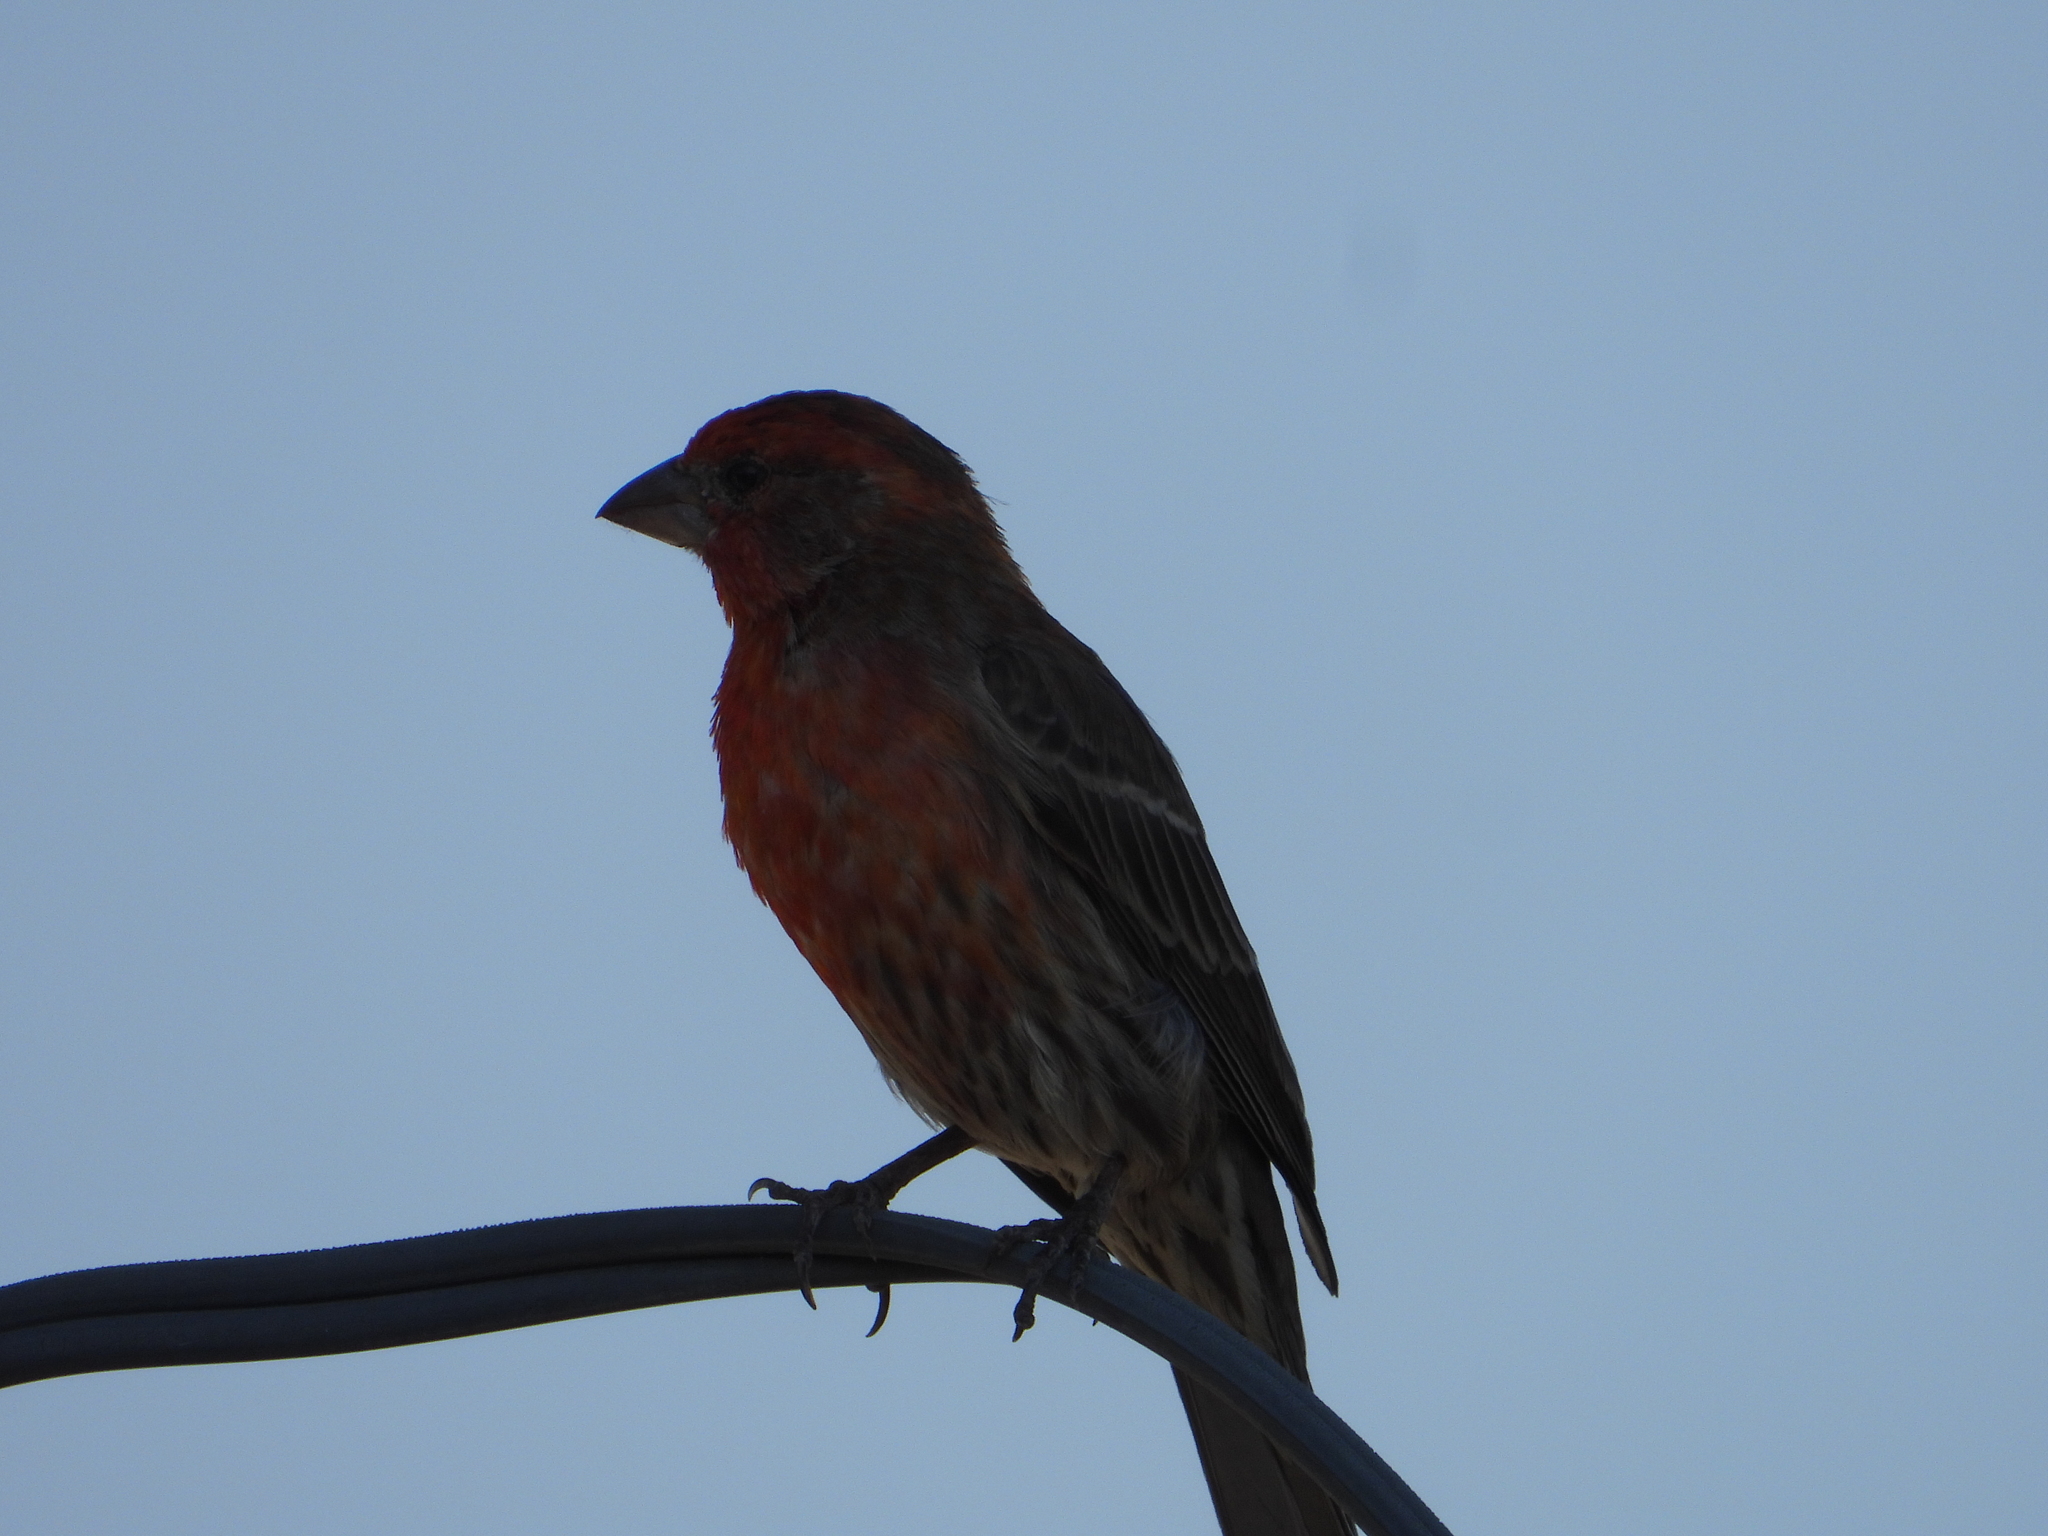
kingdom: Animalia
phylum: Chordata
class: Aves
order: Passeriformes
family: Fringillidae
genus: Haemorhous
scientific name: Haemorhous mexicanus
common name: House finch
